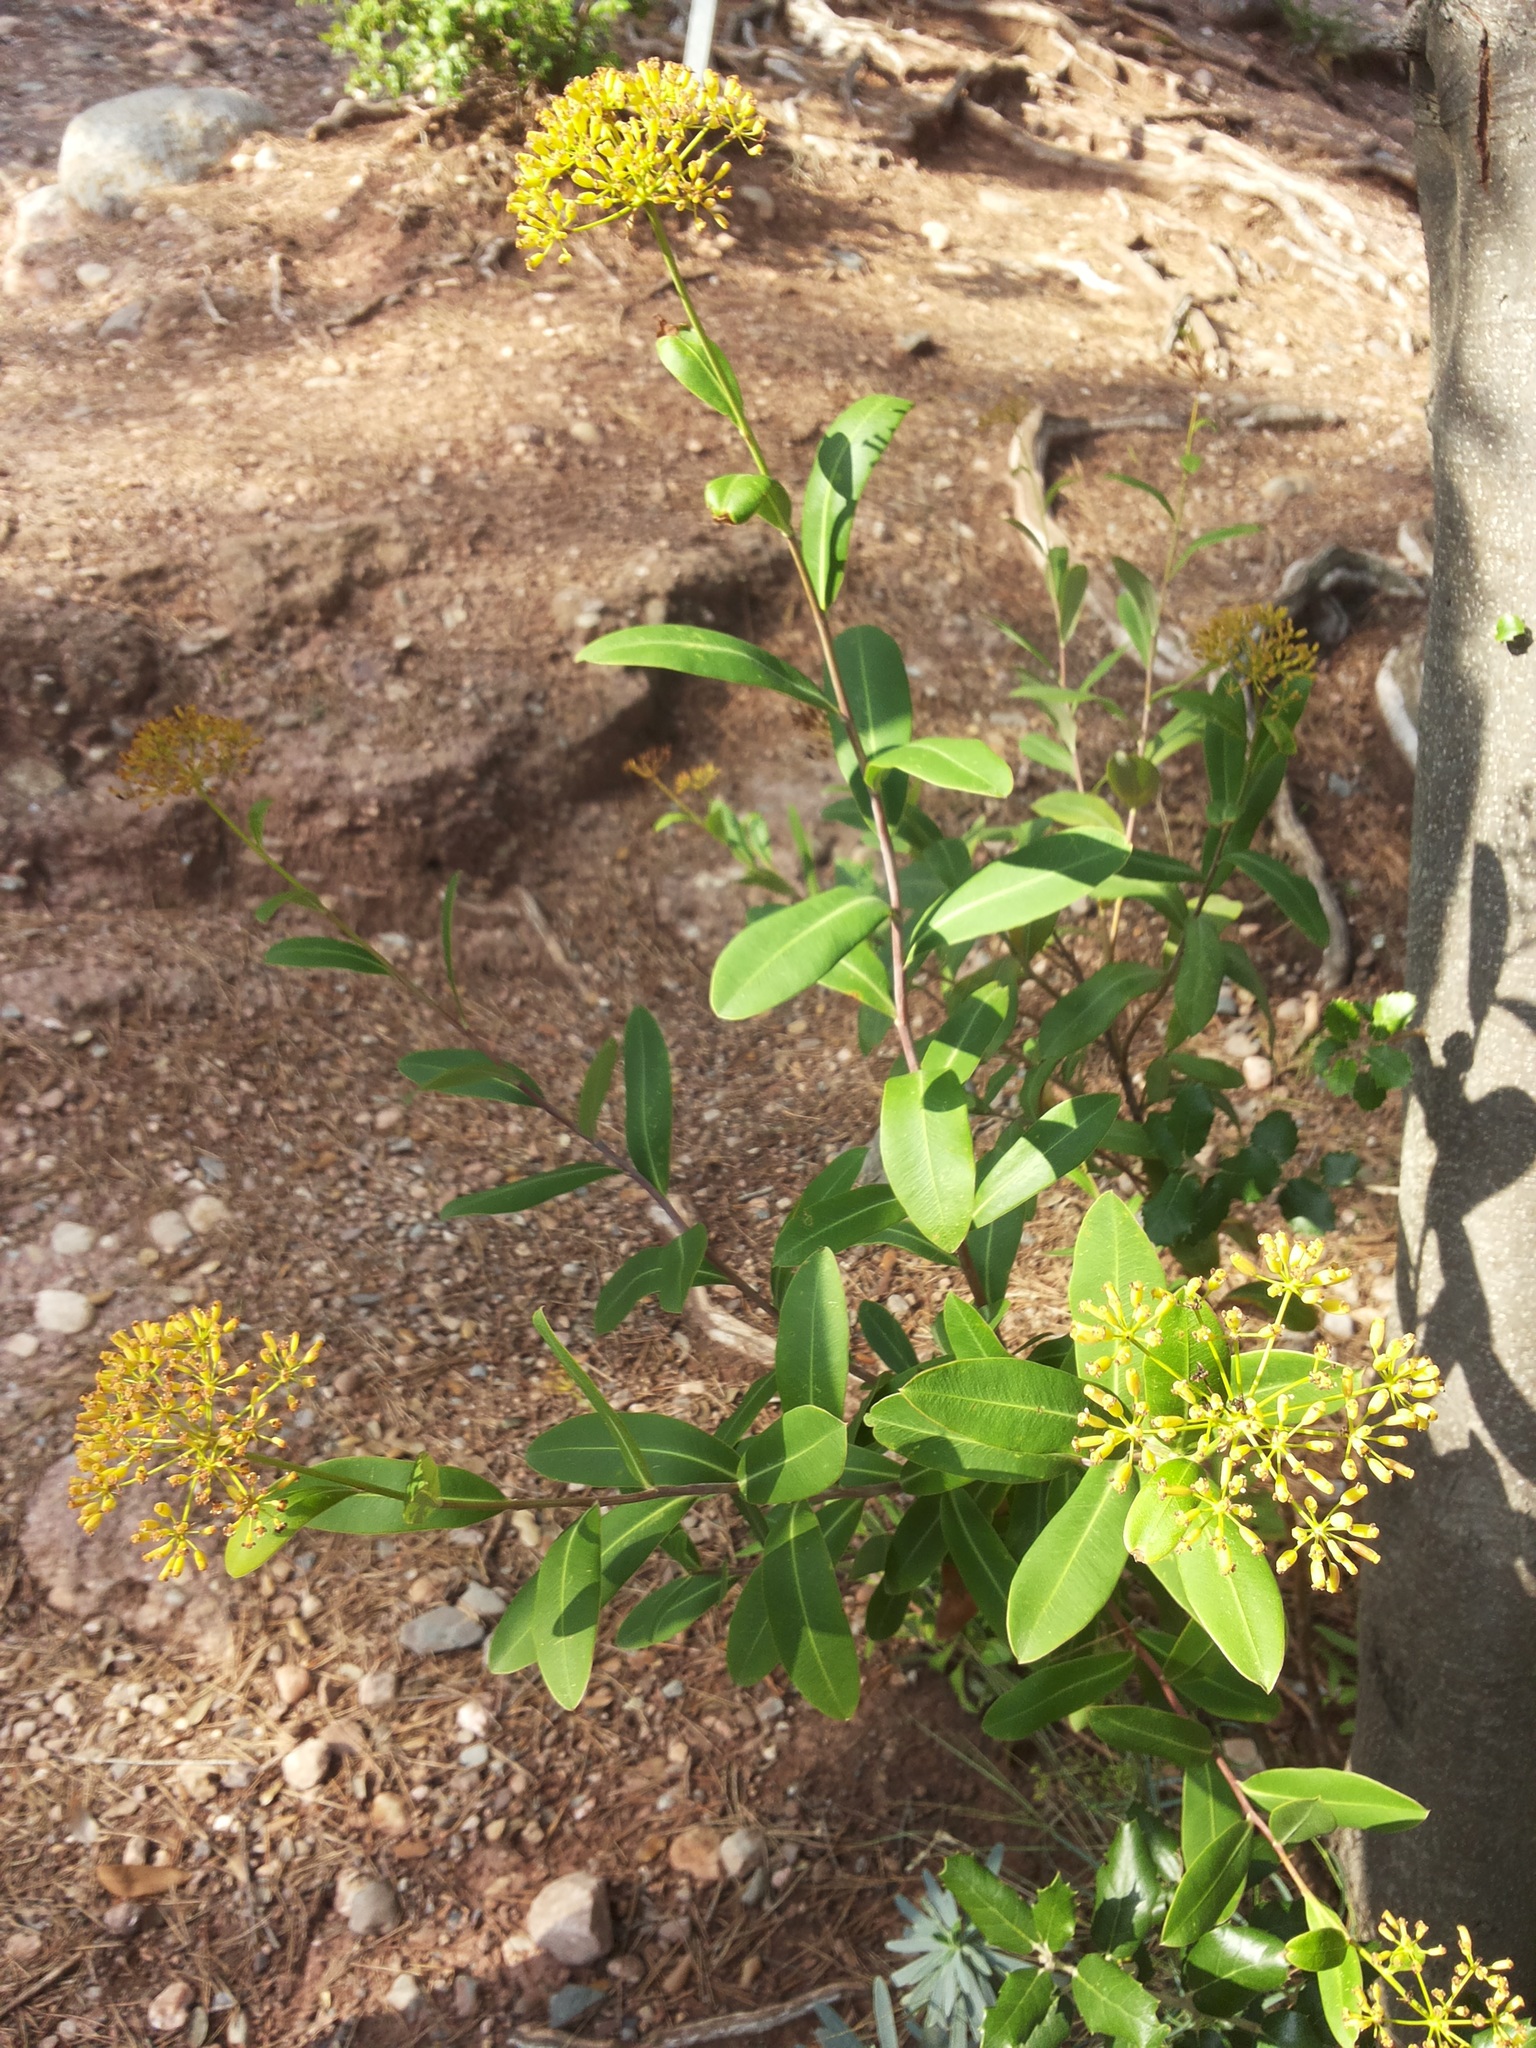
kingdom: Plantae
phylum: Tracheophyta
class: Magnoliopsida
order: Apiales
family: Apiaceae
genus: Bupleurum
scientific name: Bupleurum fruticosum
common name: Shrubby hare's-ear
